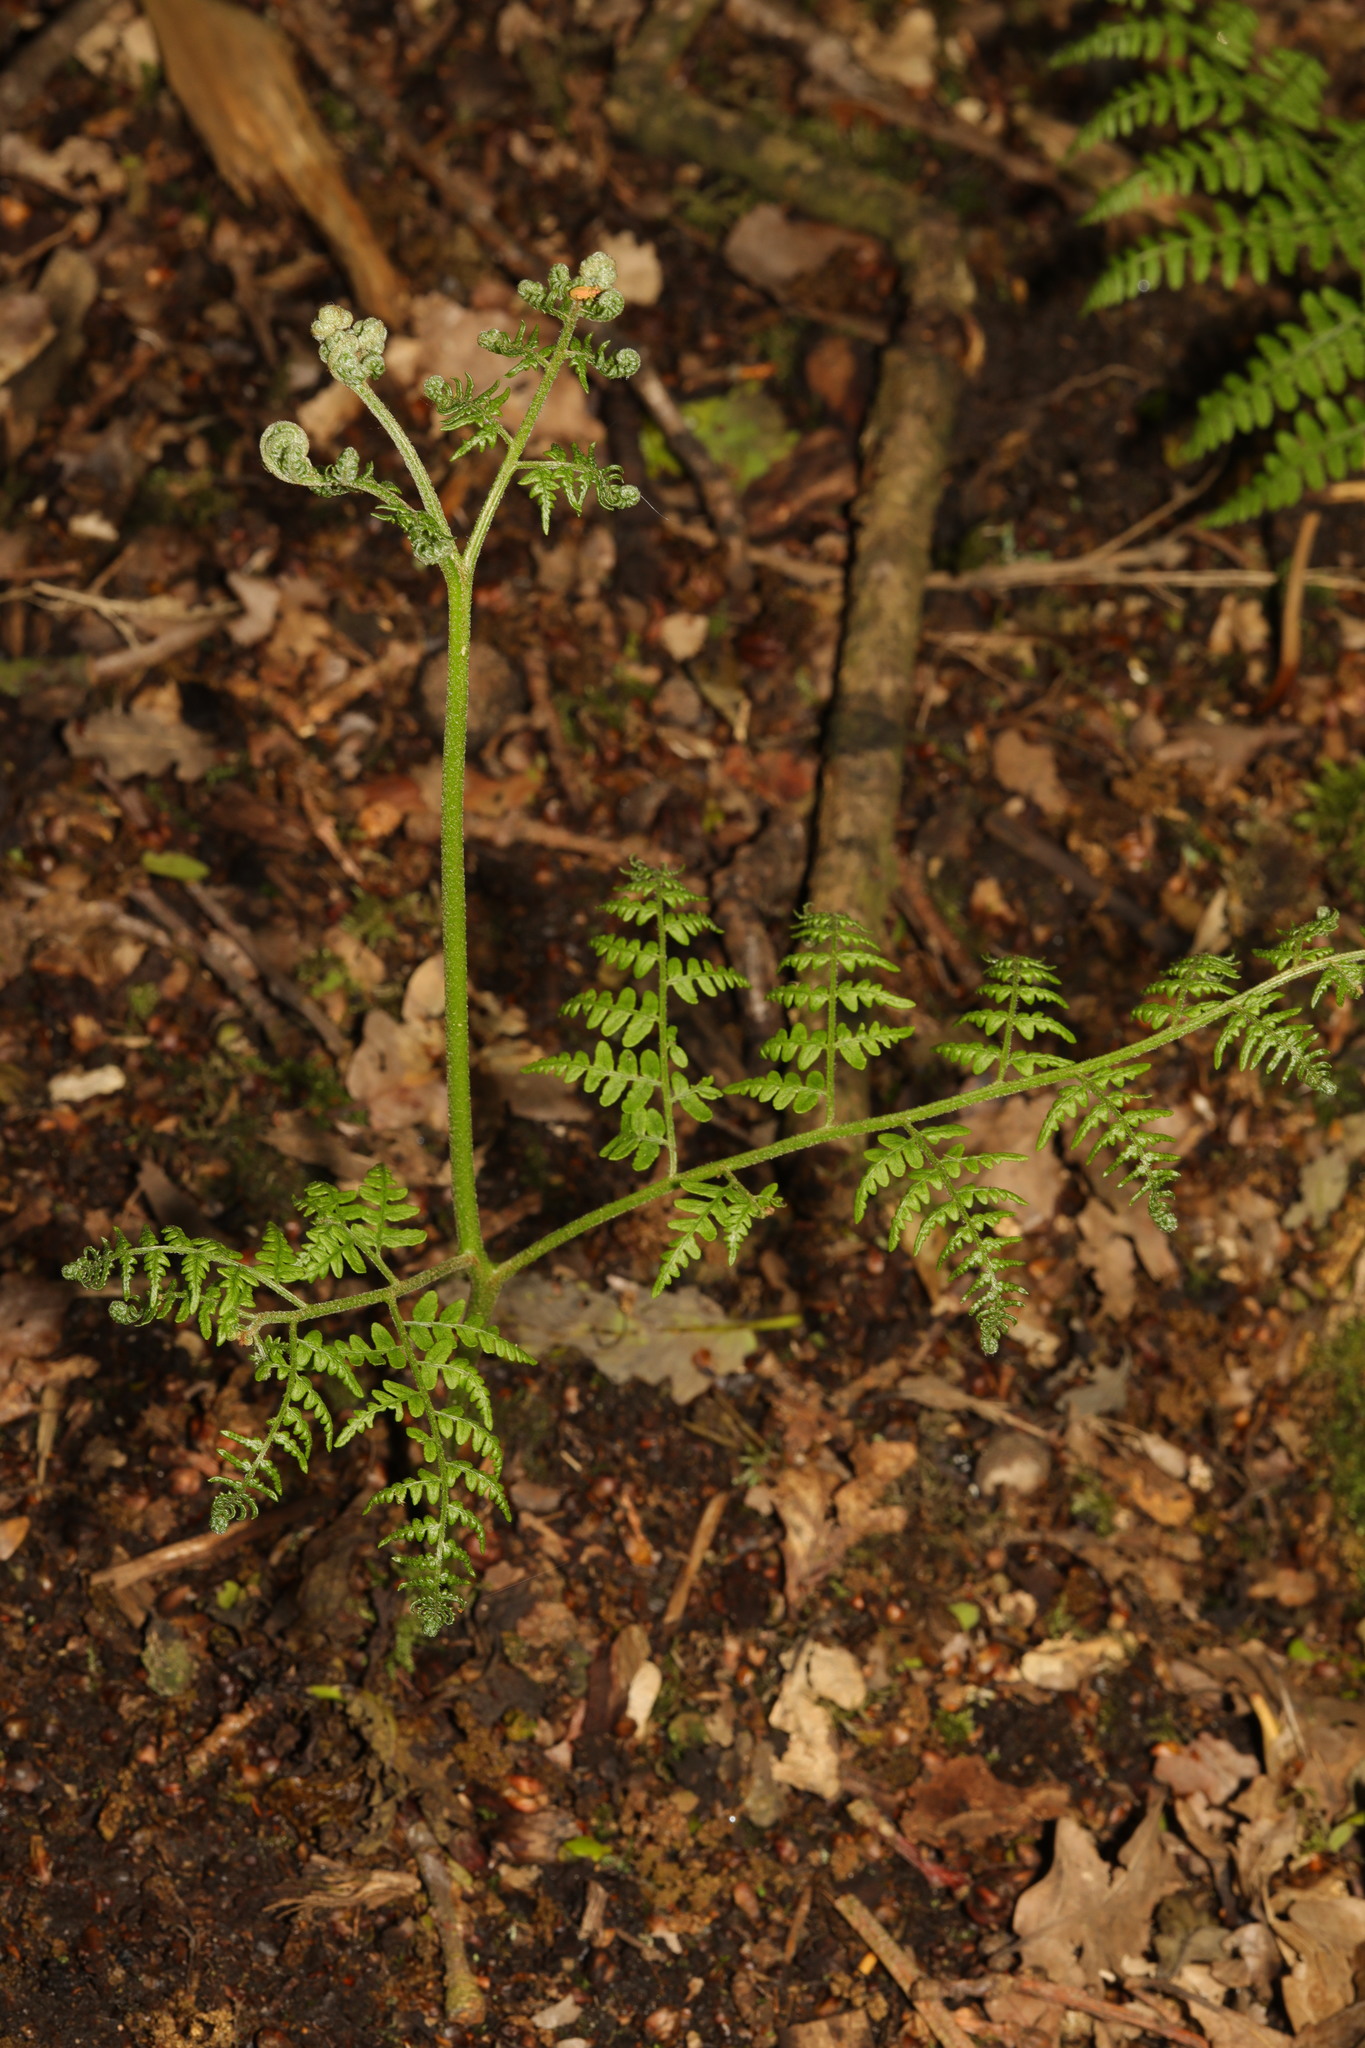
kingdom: Plantae
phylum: Tracheophyta
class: Polypodiopsida
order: Polypodiales
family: Dennstaedtiaceae
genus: Pteridium
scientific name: Pteridium aquilinum
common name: Bracken
